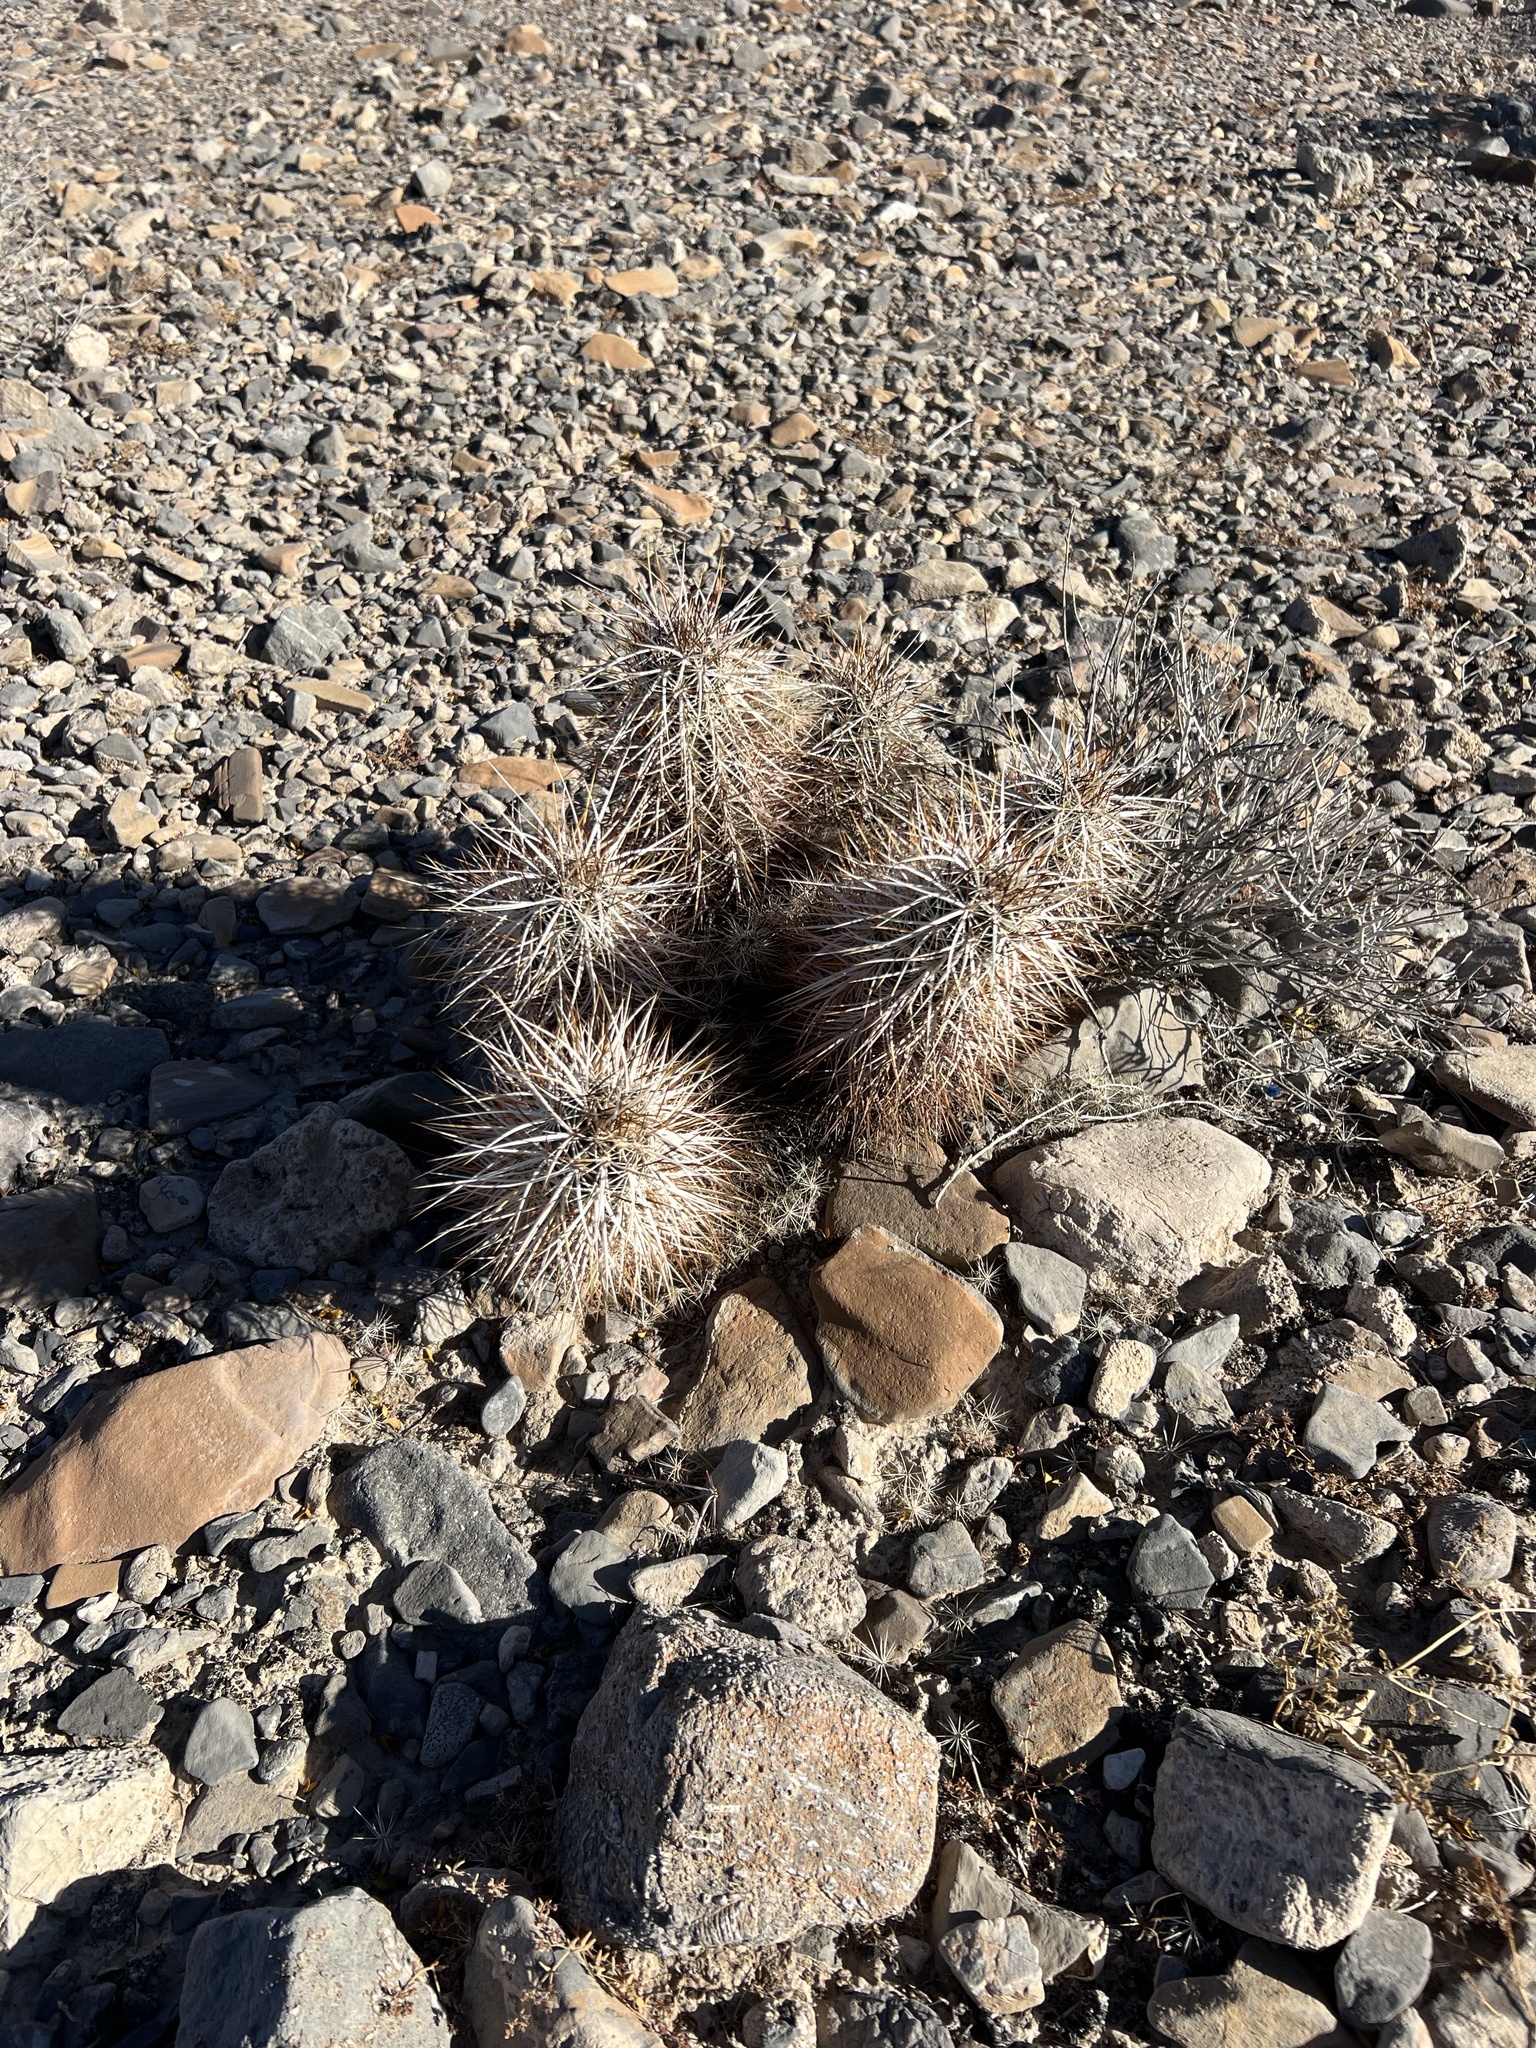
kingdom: Plantae
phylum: Tracheophyta
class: Magnoliopsida
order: Caryophyllales
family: Cactaceae
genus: Echinocereus
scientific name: Echinocereus engelmannii
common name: Engelmann's hedgehog cactus
